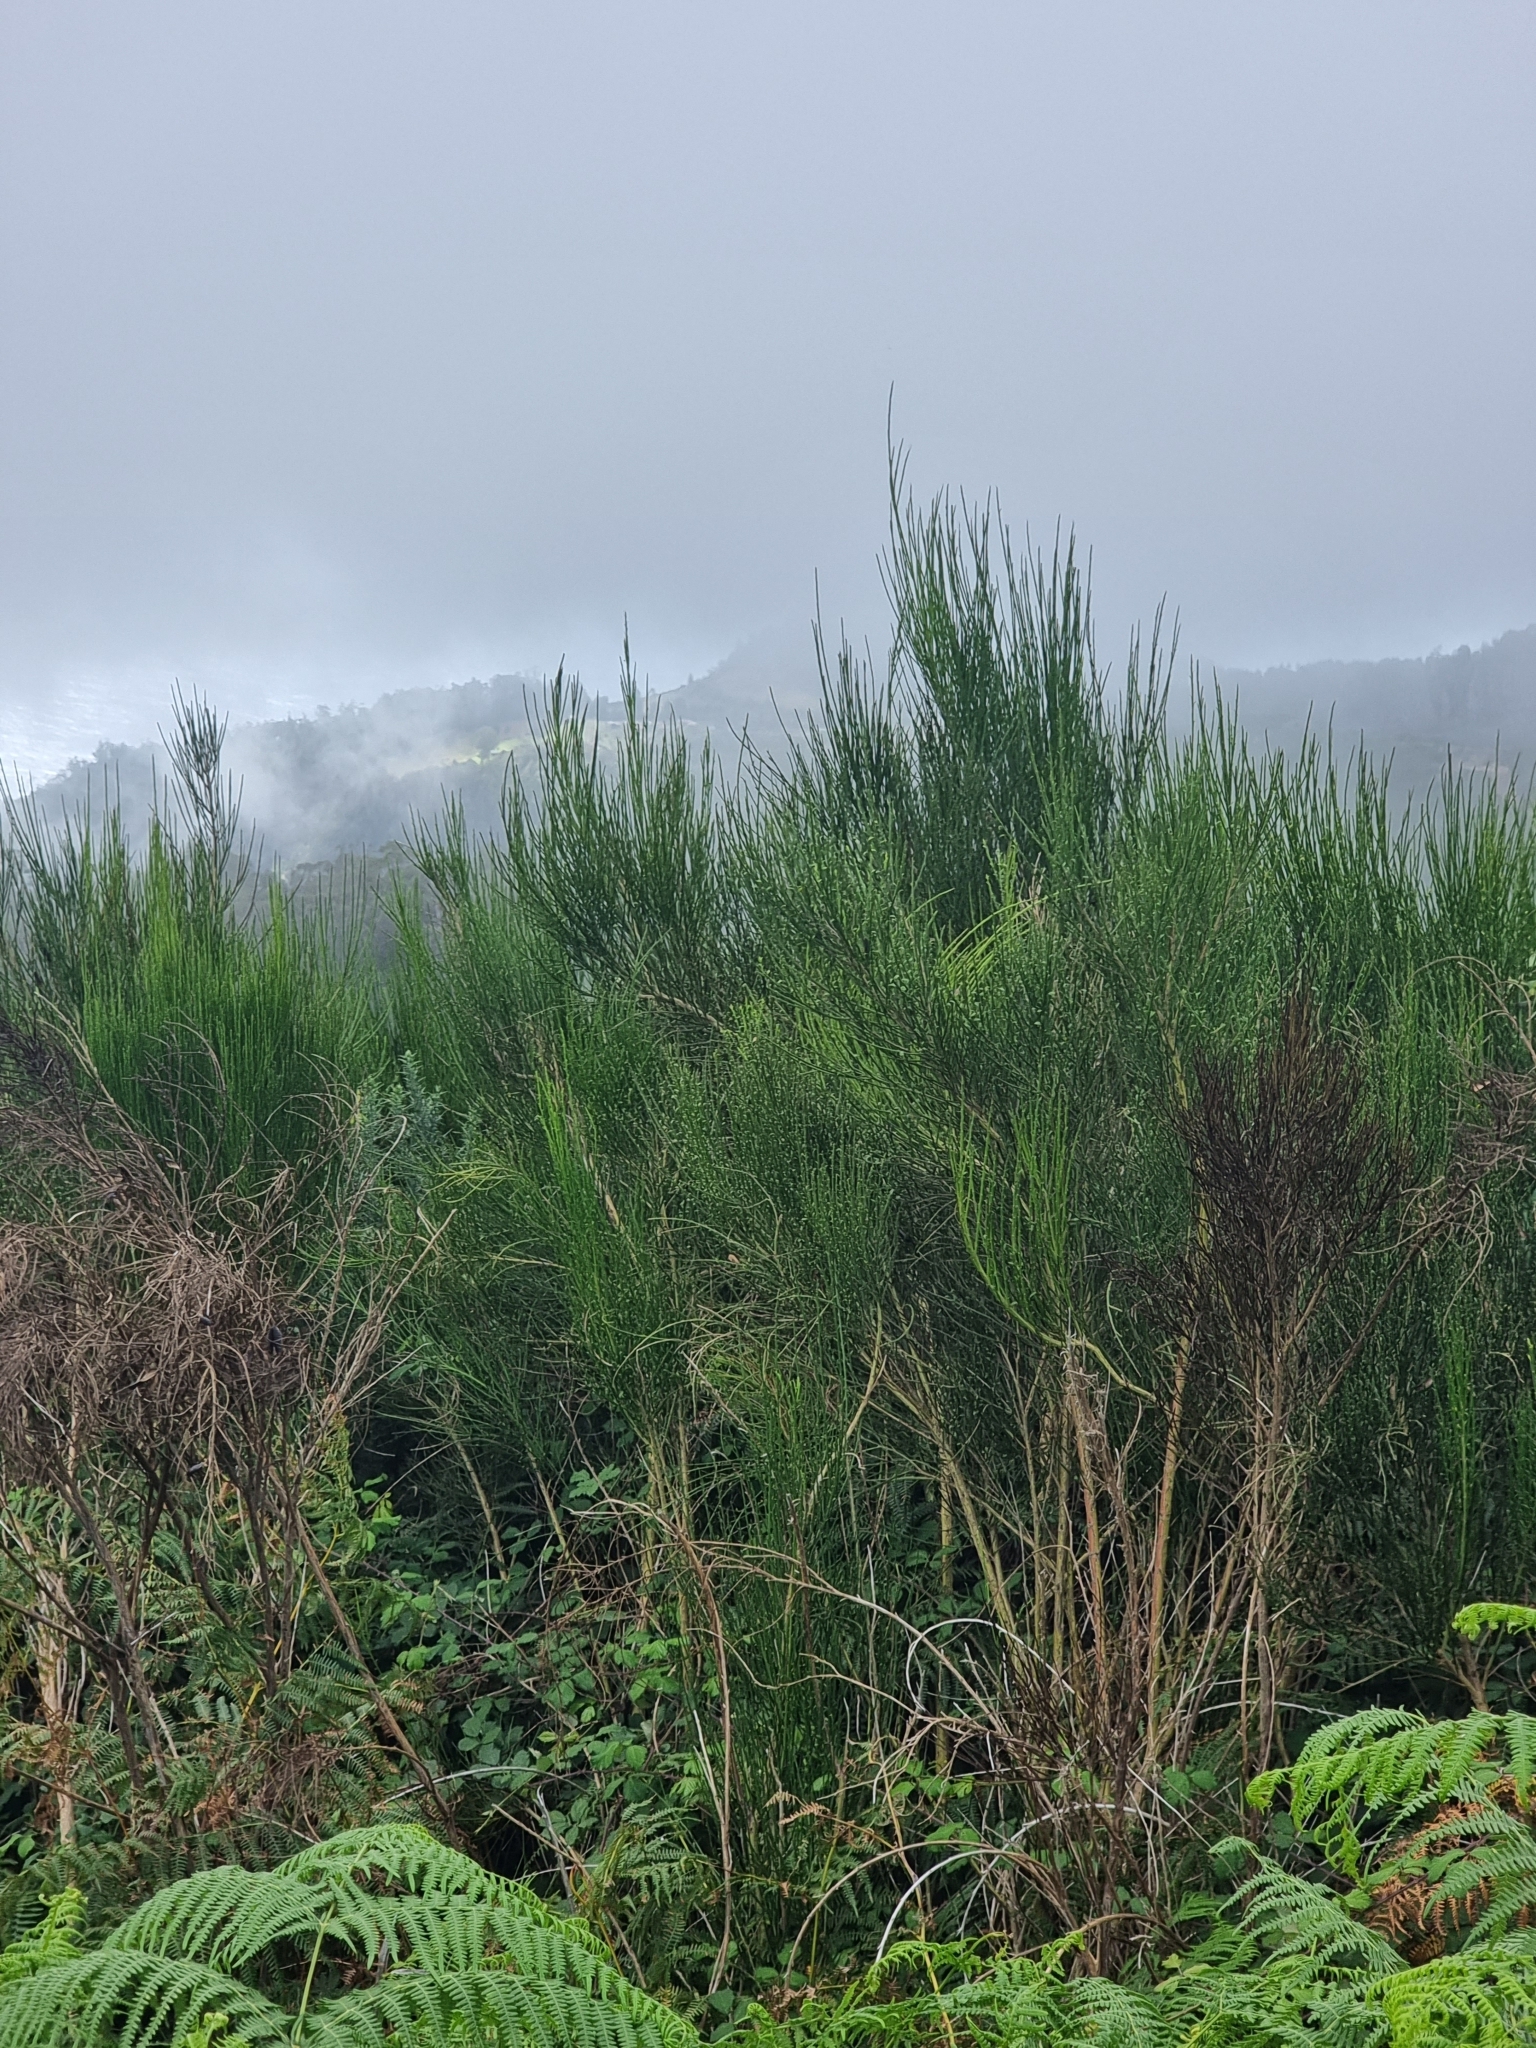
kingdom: Plantae
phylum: Tracheophyta
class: Magnoliopsida
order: Fabales
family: Fabaceae
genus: Cytisus
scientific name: Cytisus scoparius
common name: Scotch broom
